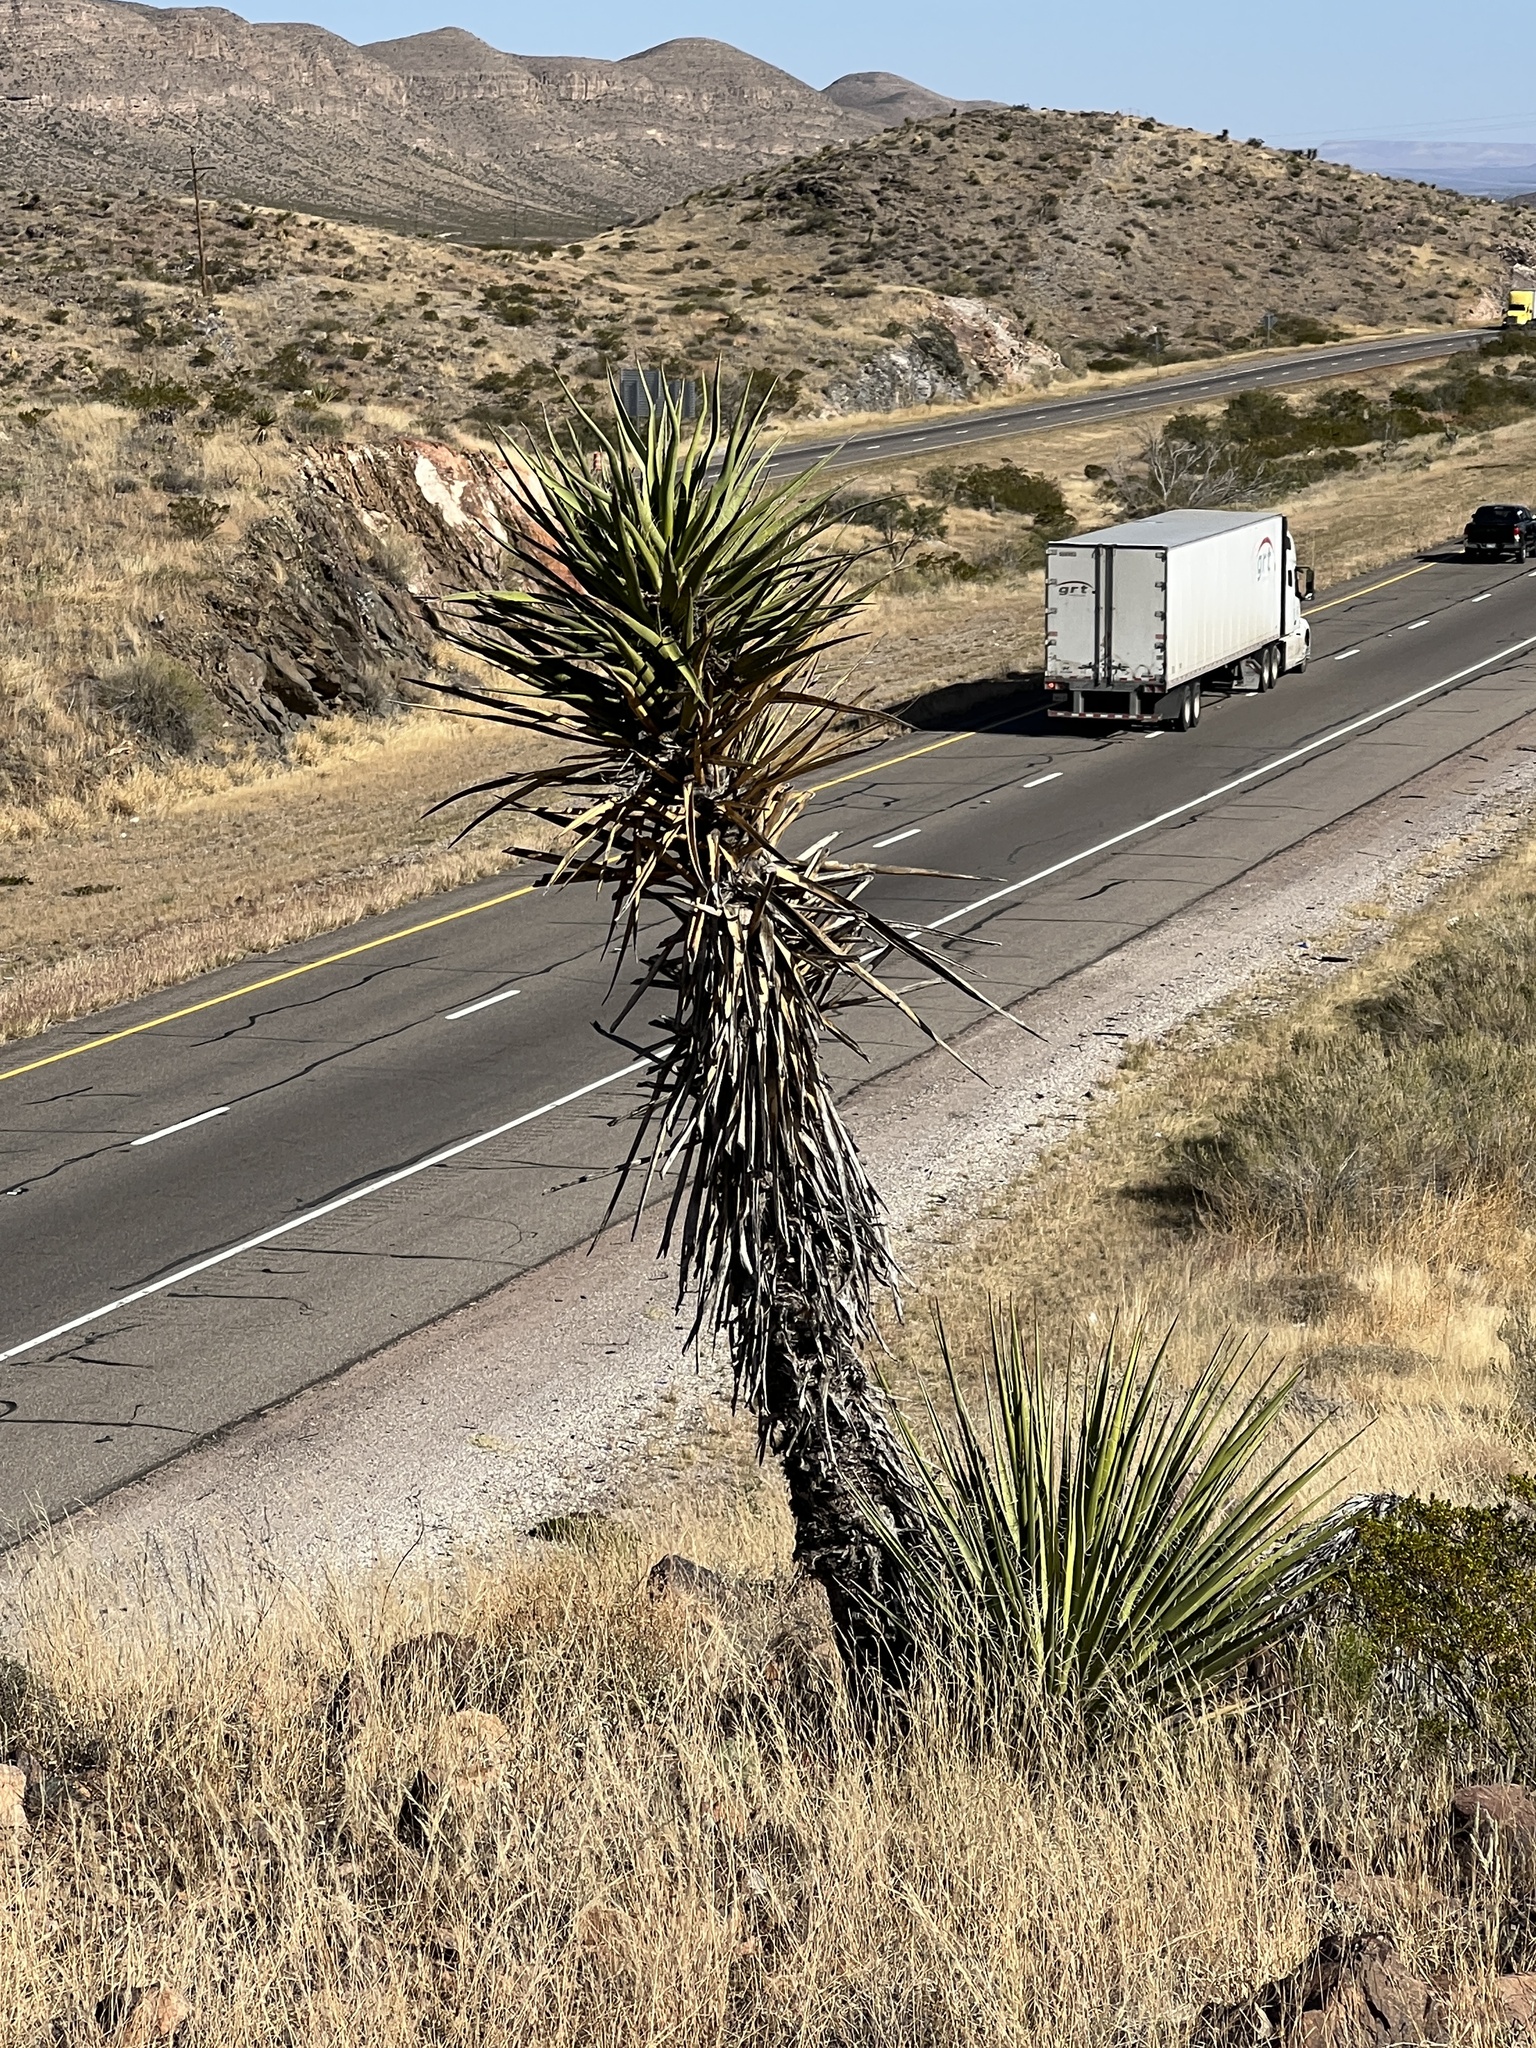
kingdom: Plantae
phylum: Tracheophyta
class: Liliopsida
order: Asparagales
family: Asparagaceae
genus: Yucca
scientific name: Yucca treculiana
